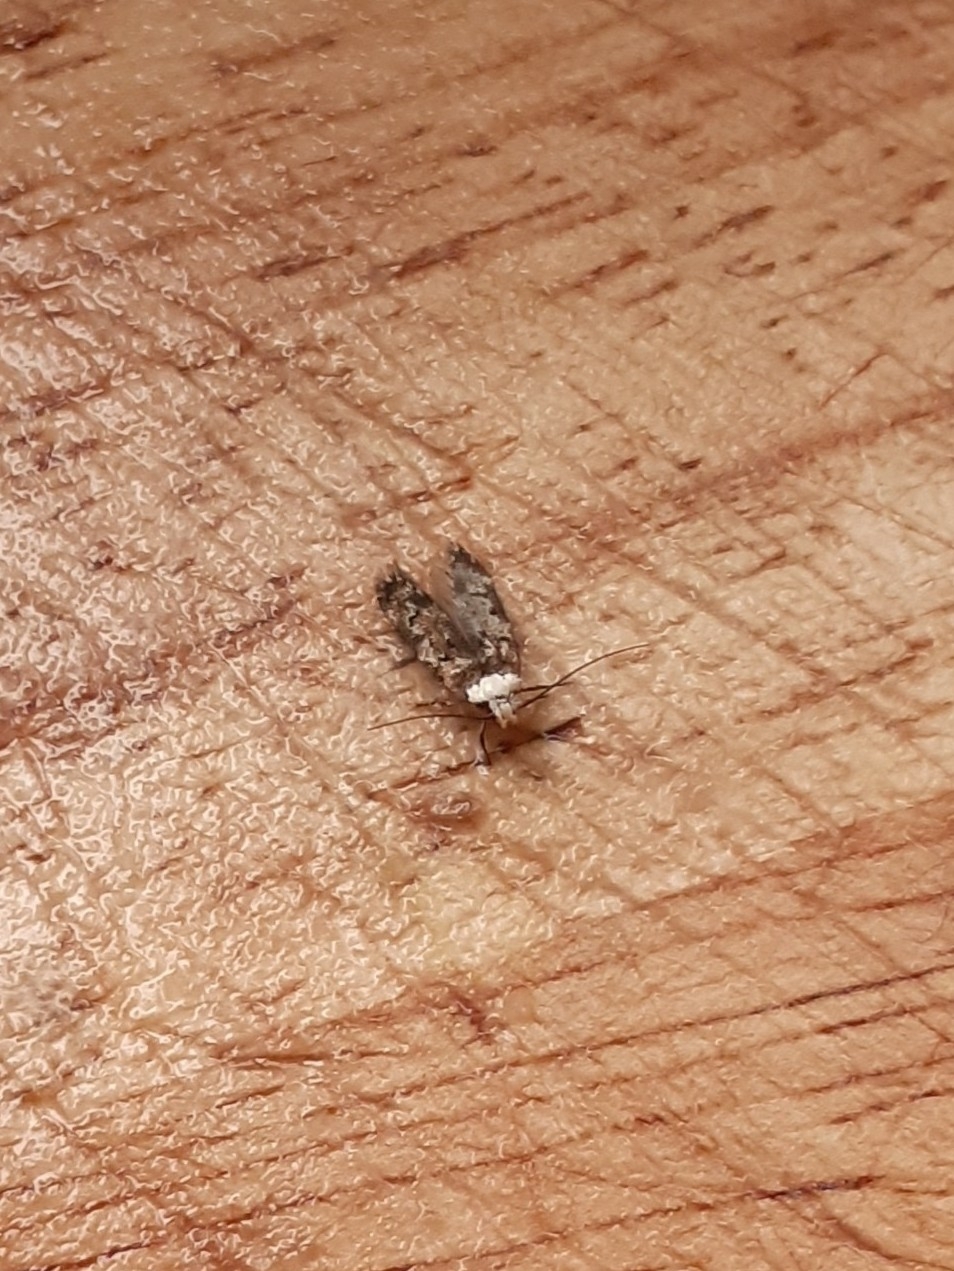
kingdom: Animalia
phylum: Arthropoda
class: Insecta
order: Lepidoptera
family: Oecophoridae
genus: Endrosis
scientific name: Endrosis sarcitrella
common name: White-shouldered house moth
